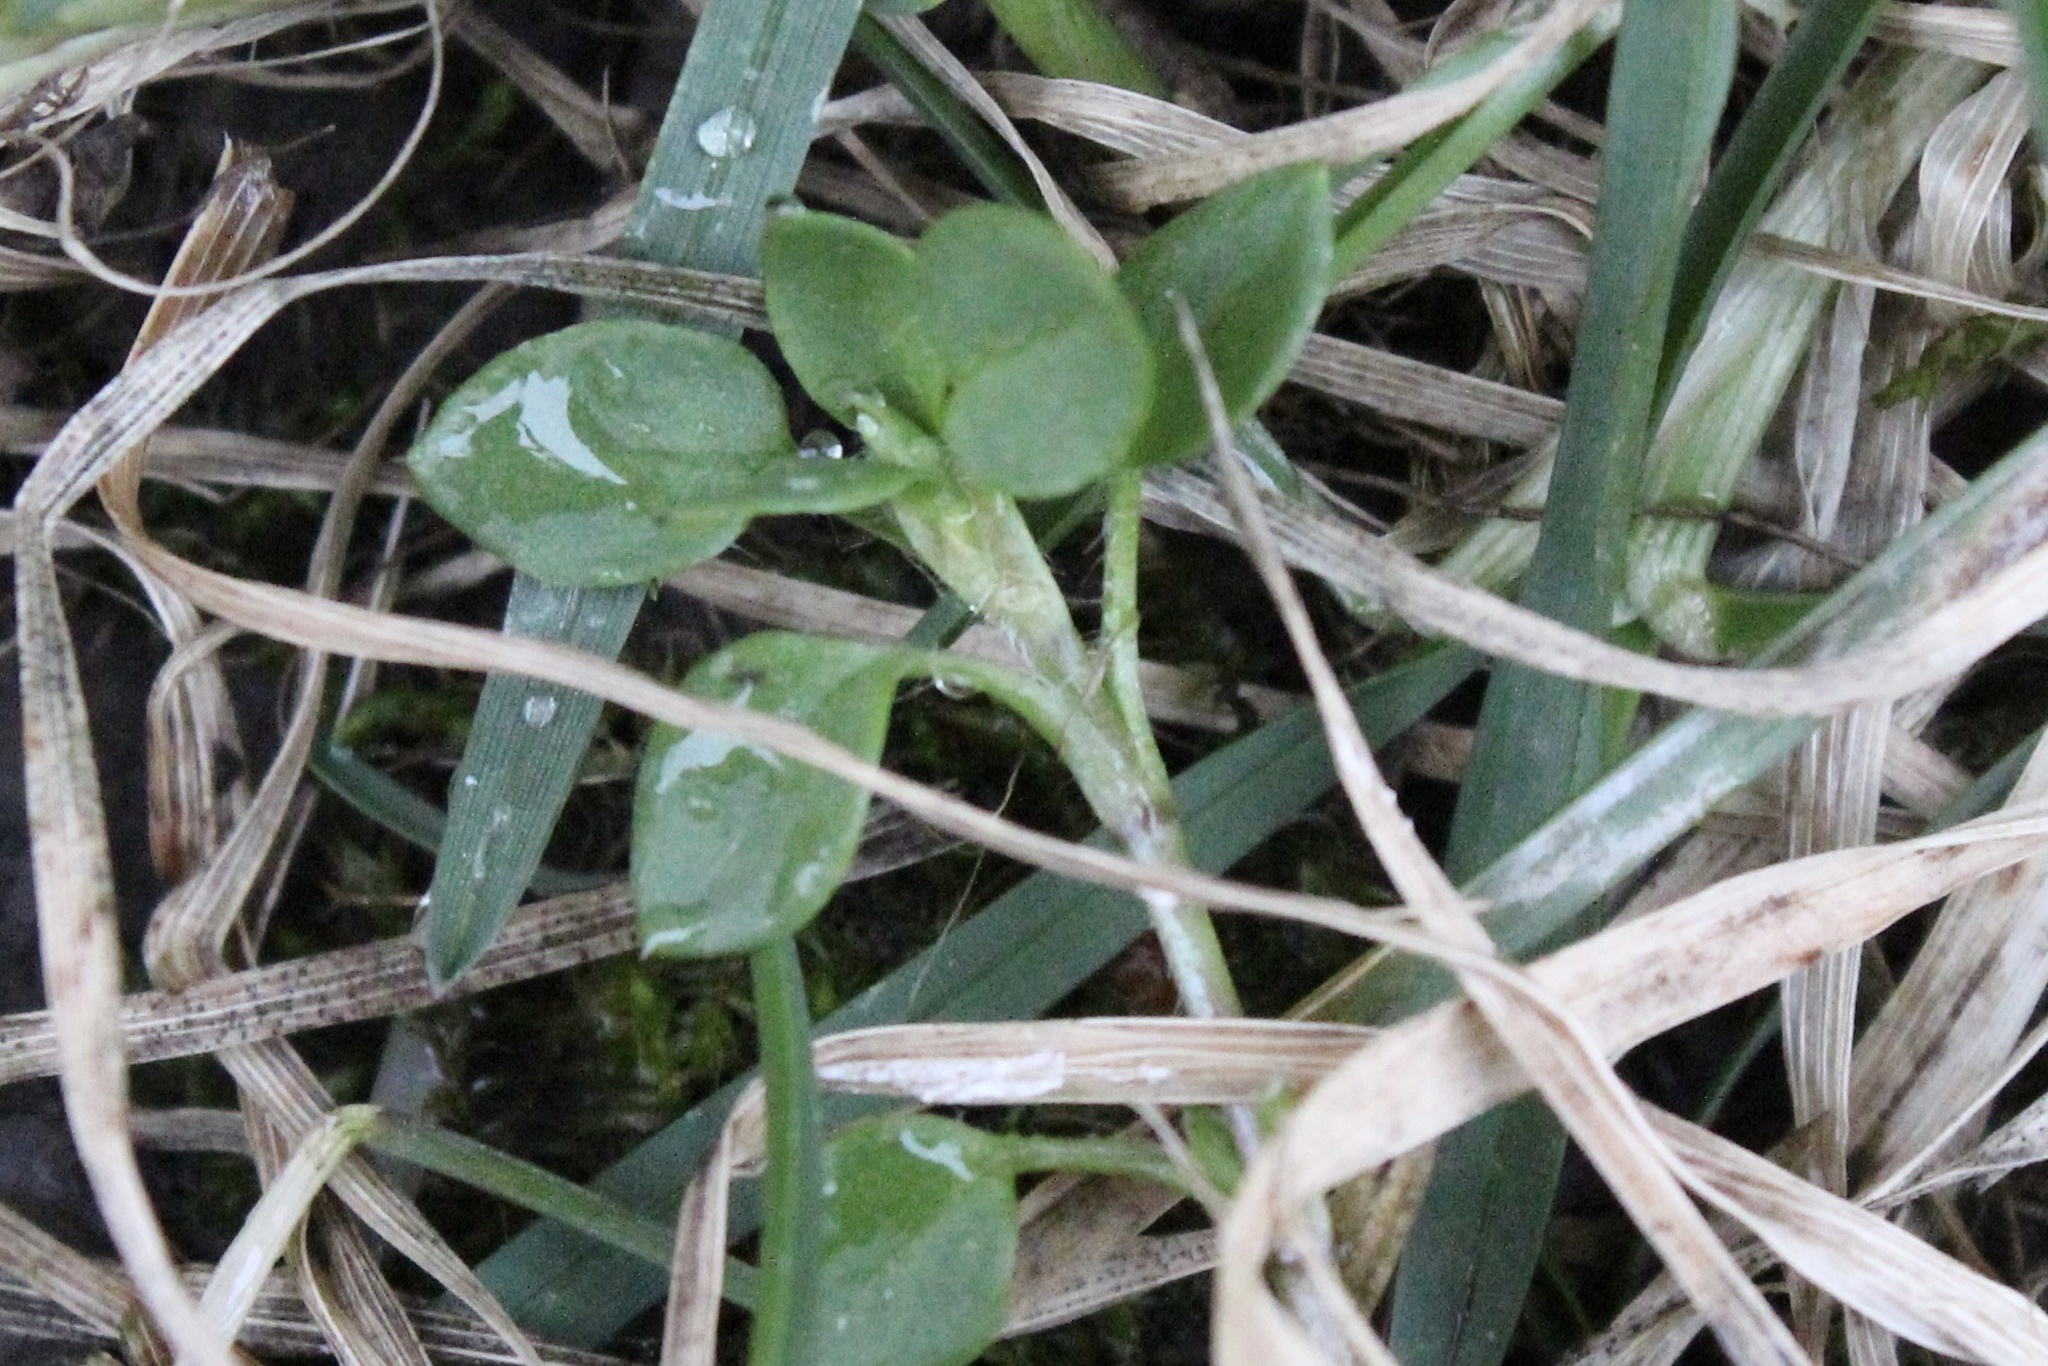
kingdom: Plantae
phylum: Tracheophyta
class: Magnoliopsida
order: Caryophyllales
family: Caryophyllaceae
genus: Stellaria
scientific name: Stellaria media
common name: Common chickweed
